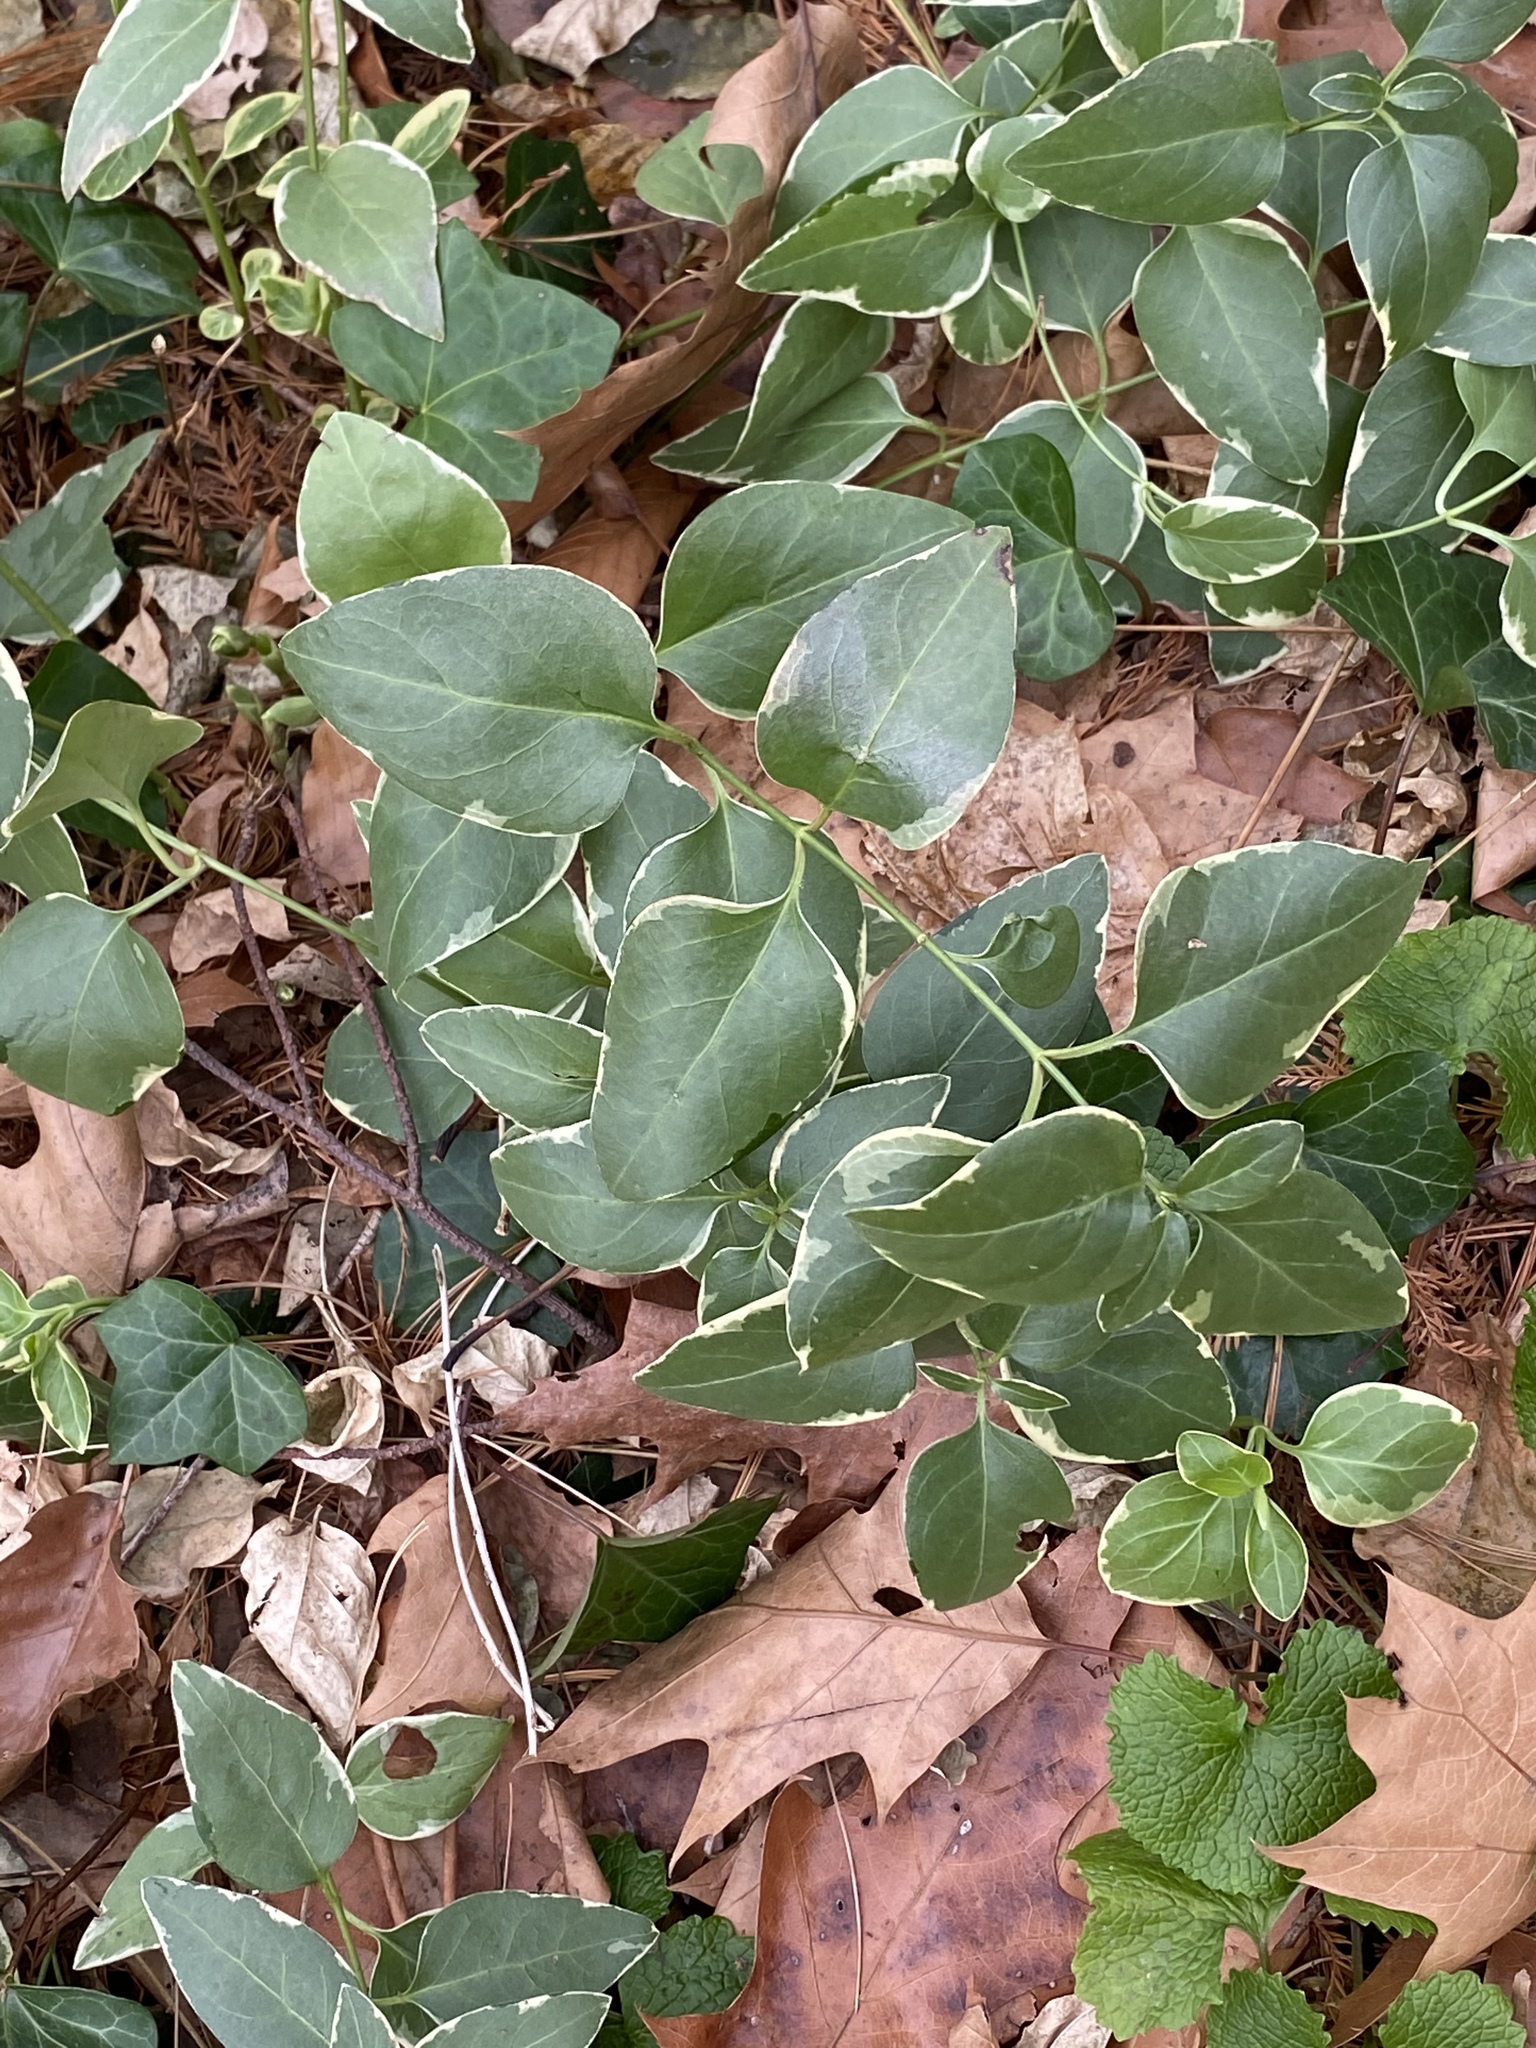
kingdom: Plantae
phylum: Tracheophyta
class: Magnoliopsida
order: Gentianales
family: Apocynaceae
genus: Vinca
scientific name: Vinca major
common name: Greater periwinkle
